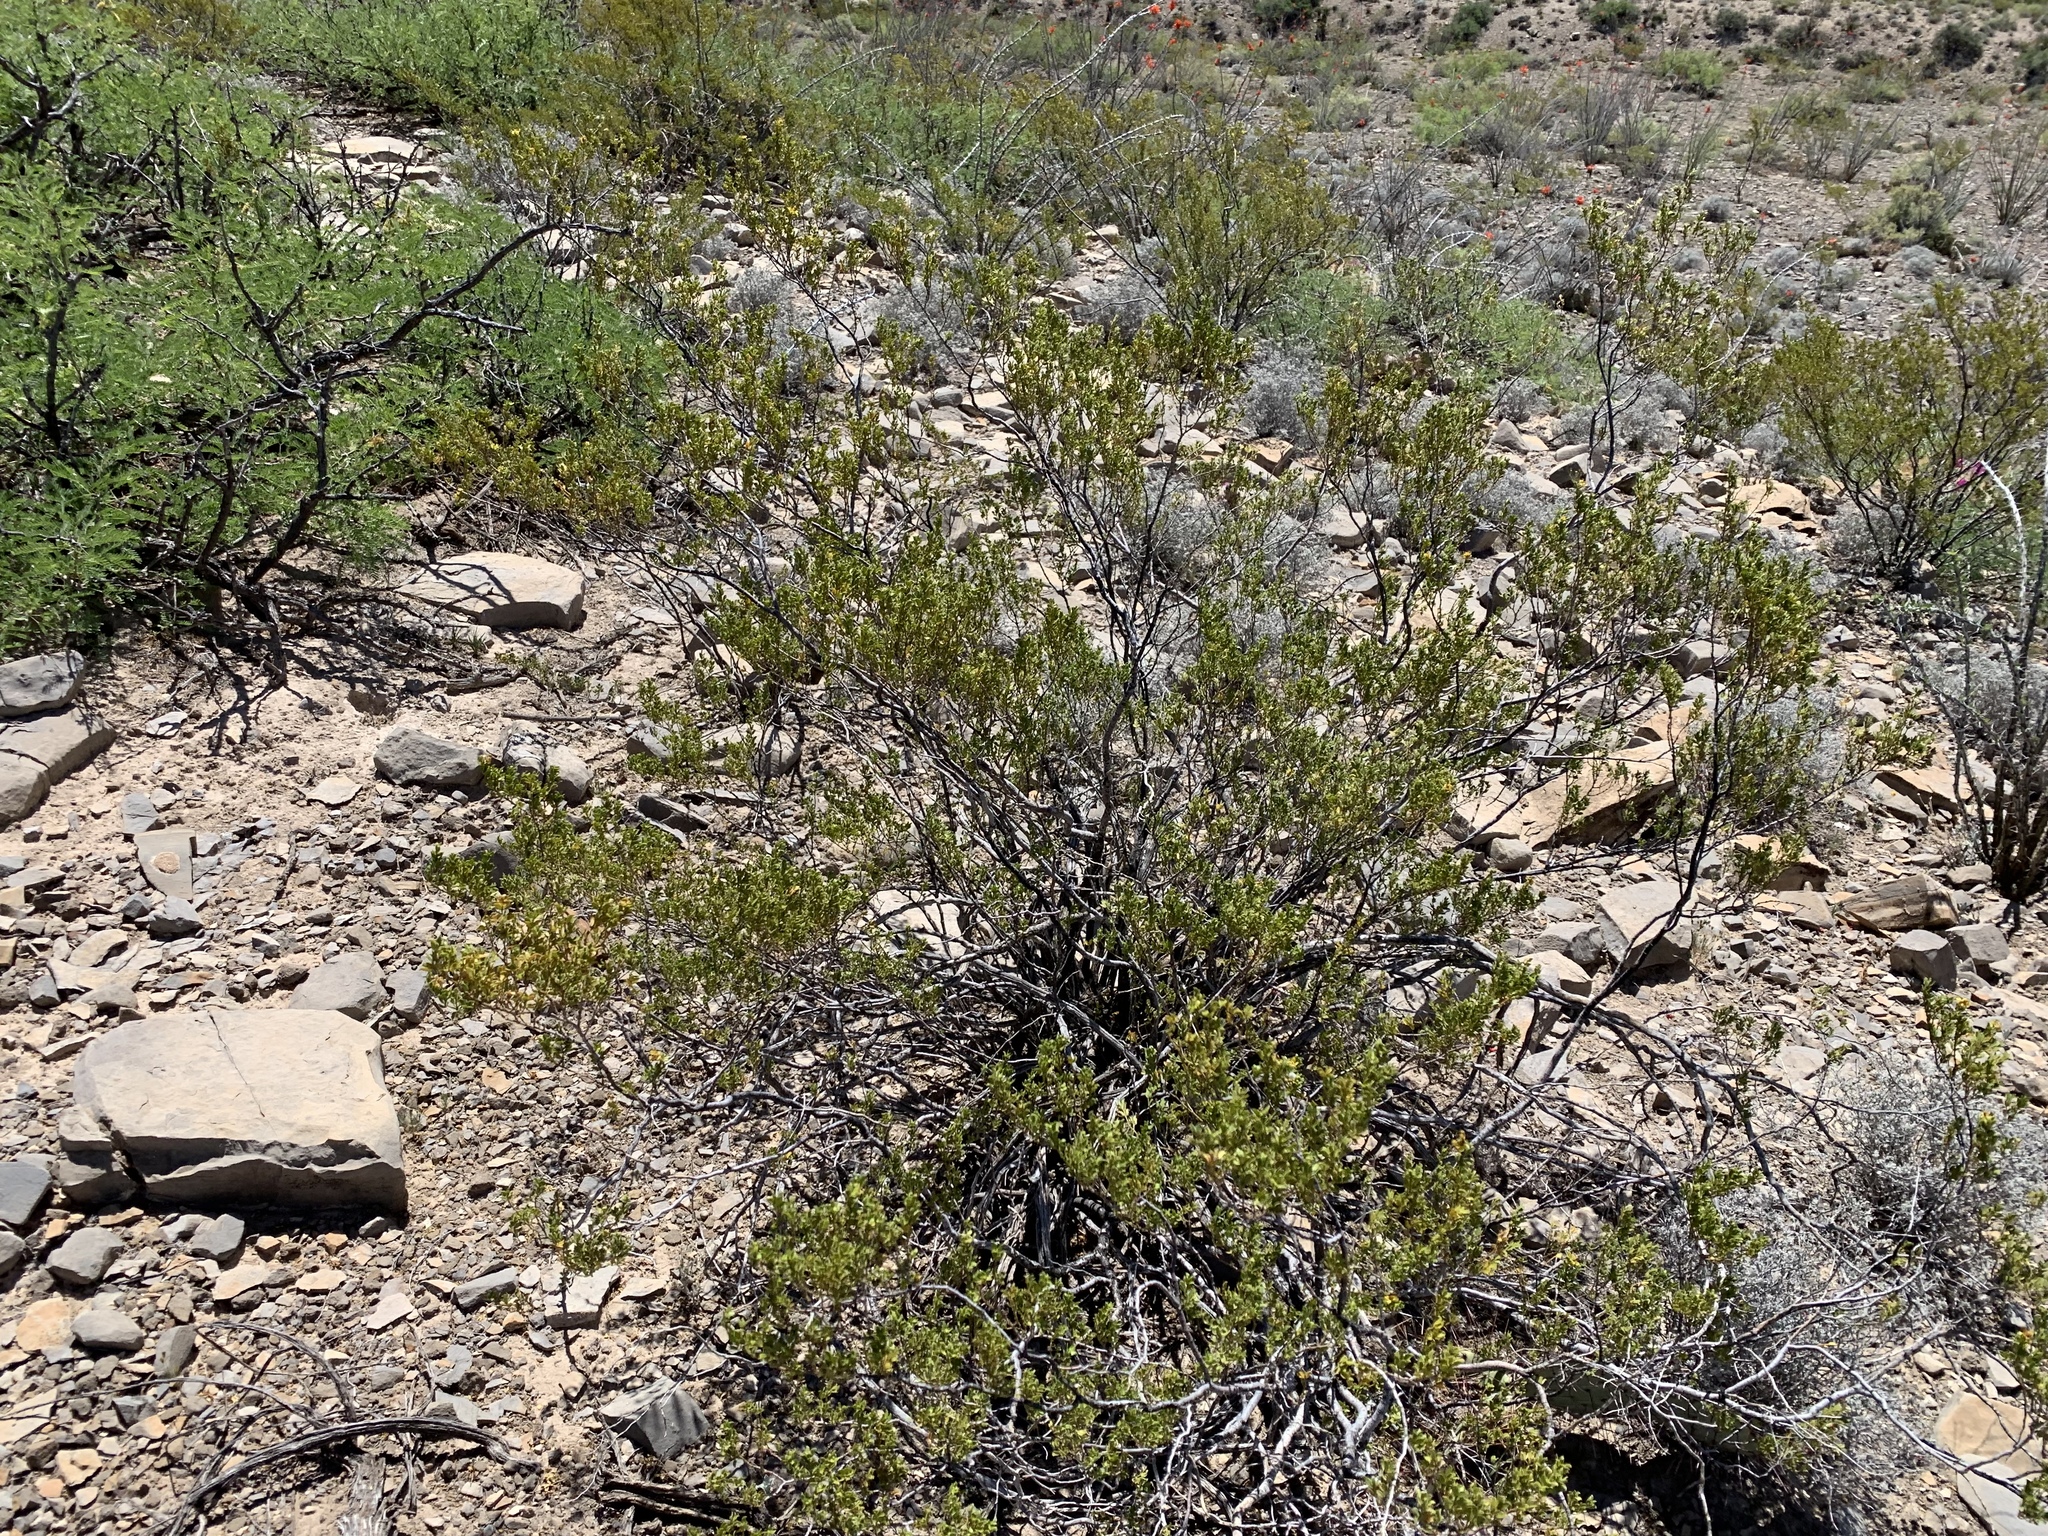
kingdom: Plantae
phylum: Tracheophyta
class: Magnoliopsida
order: Zygophyllales
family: Zygophyllaceae
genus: Larrea
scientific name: Larrea tridentata
